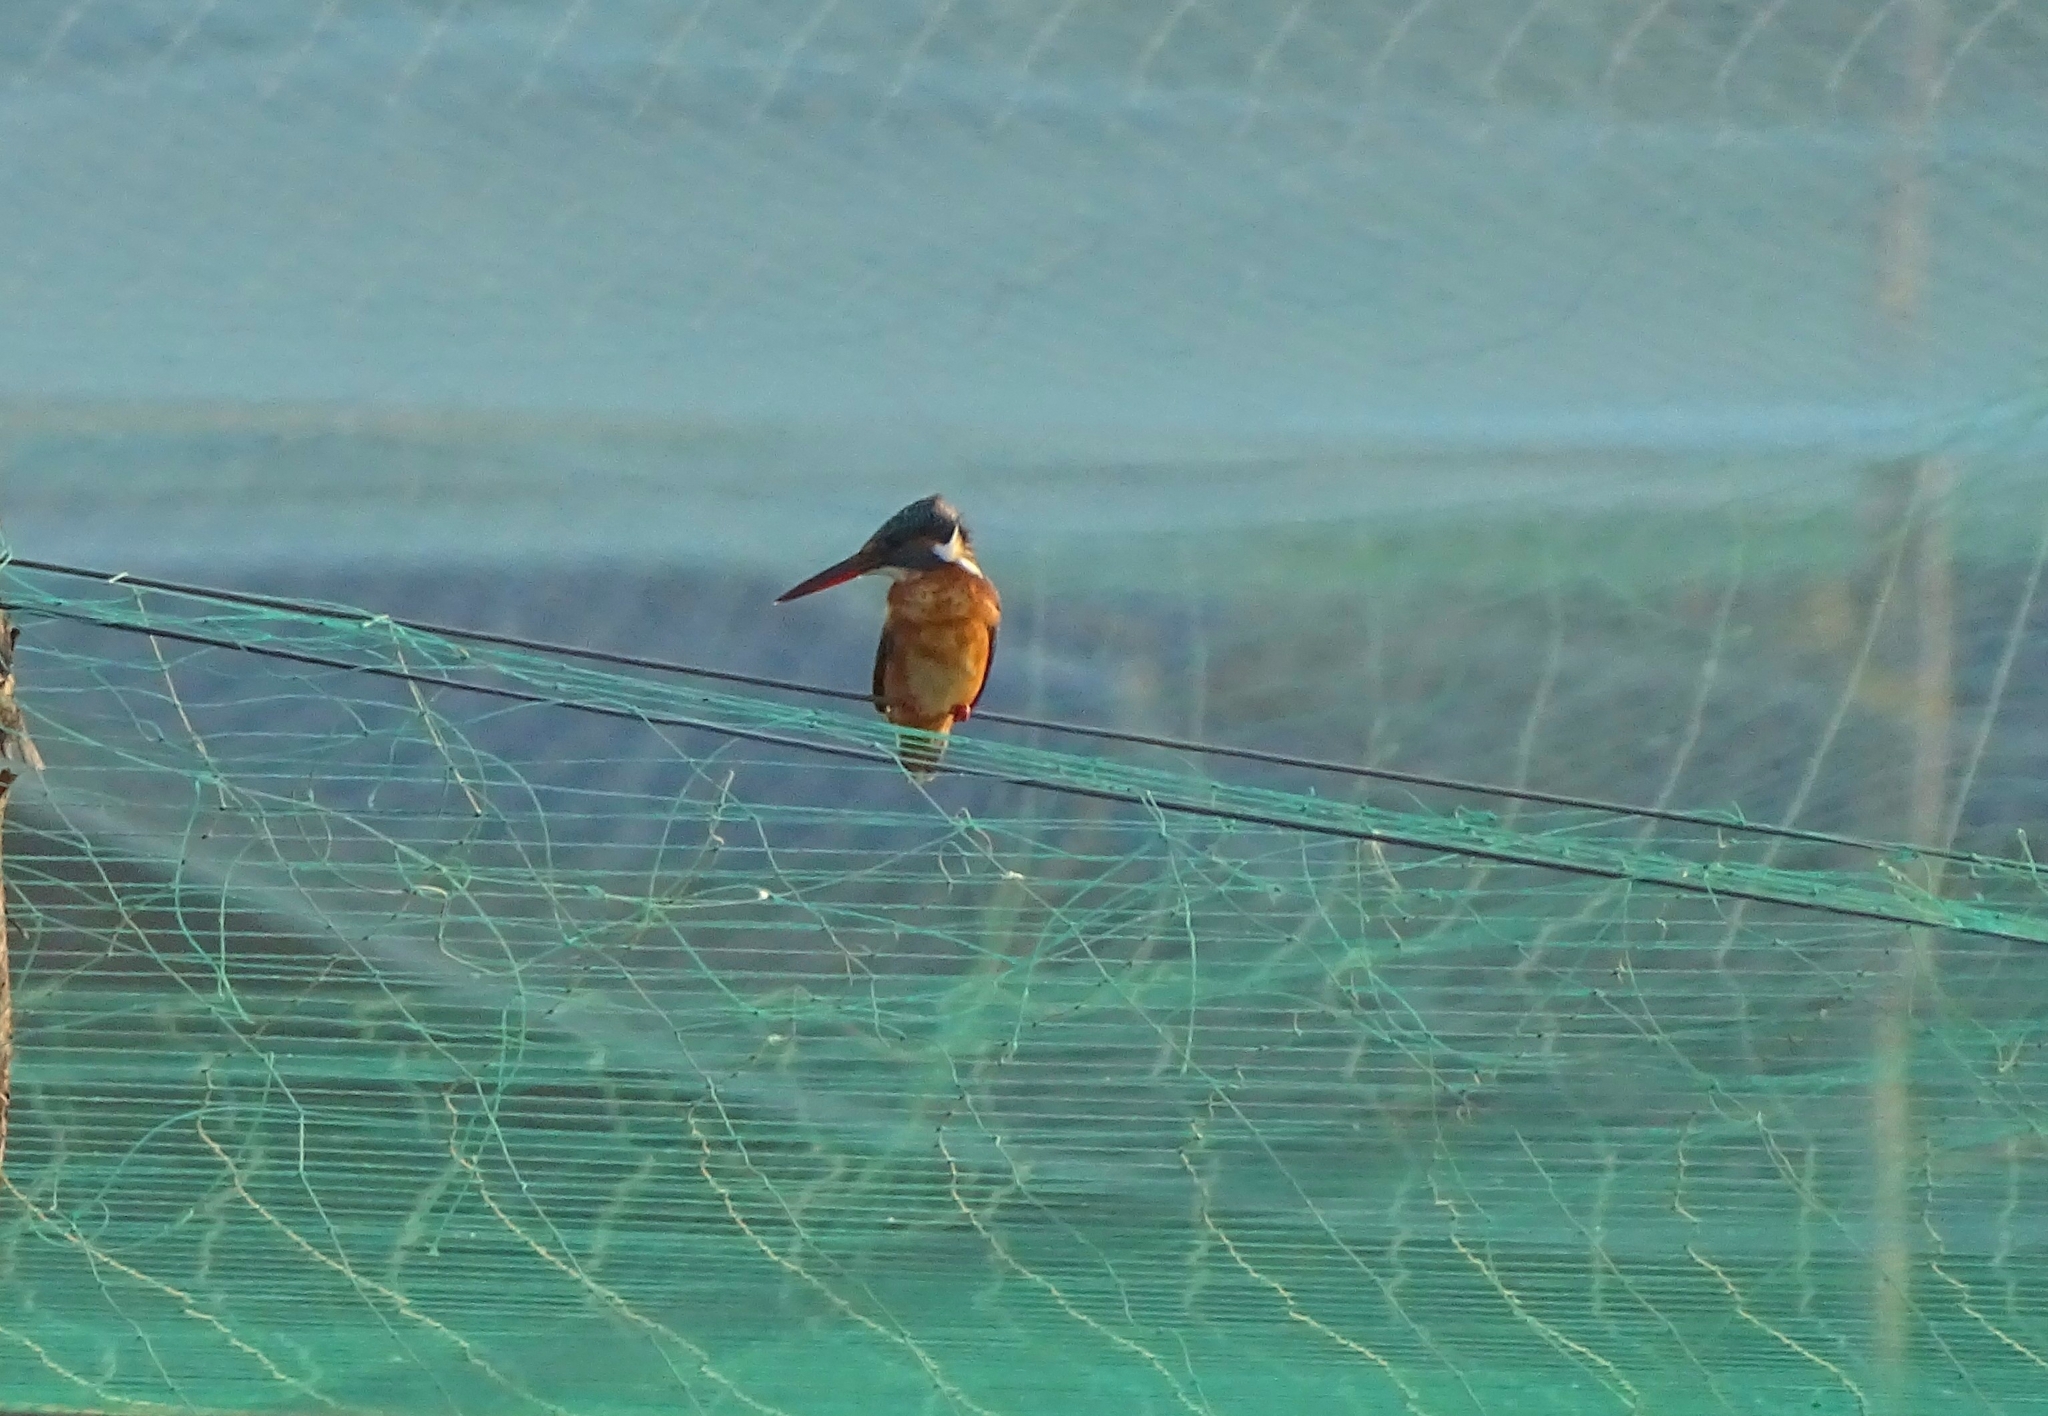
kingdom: Animalia
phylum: Chordata
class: Aves
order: Coraciiformes
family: Alcedinidae
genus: Alcedo
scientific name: Alcedo atthis
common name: Common kingfisher
